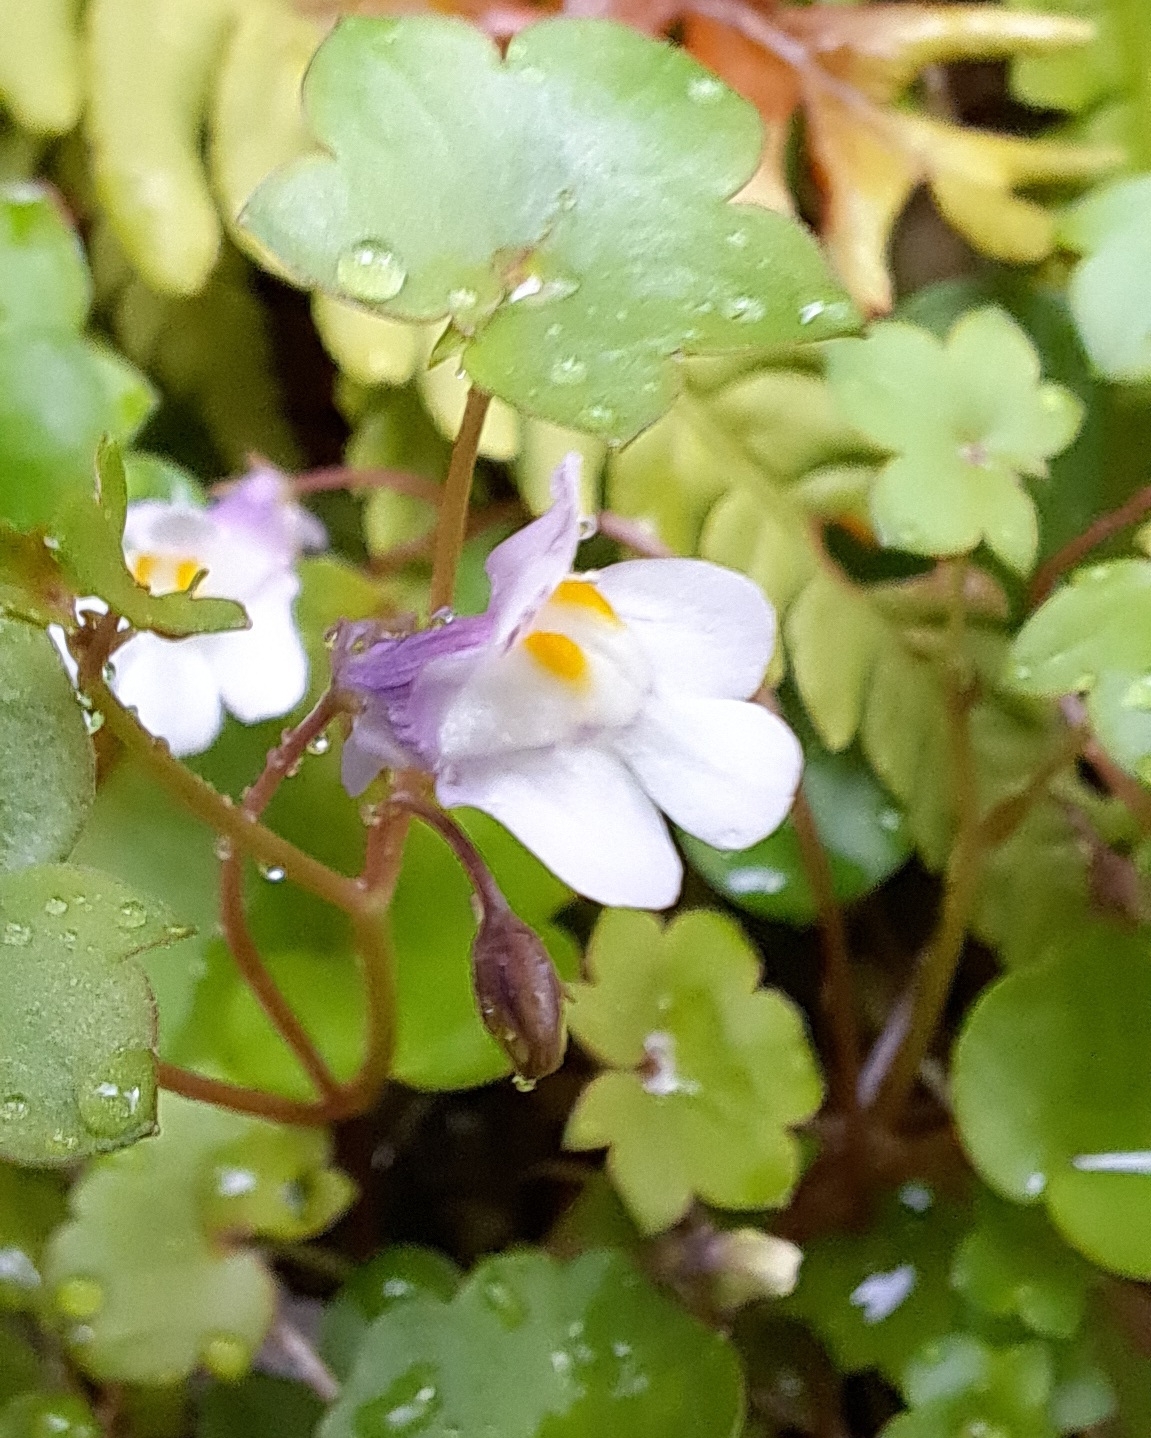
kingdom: Plantae
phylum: Tracheophyta
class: Magnoliopsida
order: Lamiales
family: Plantaginaceae
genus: Cymbalaria
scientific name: Cymbalaria muralis
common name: Ivy-leaved toadflax
